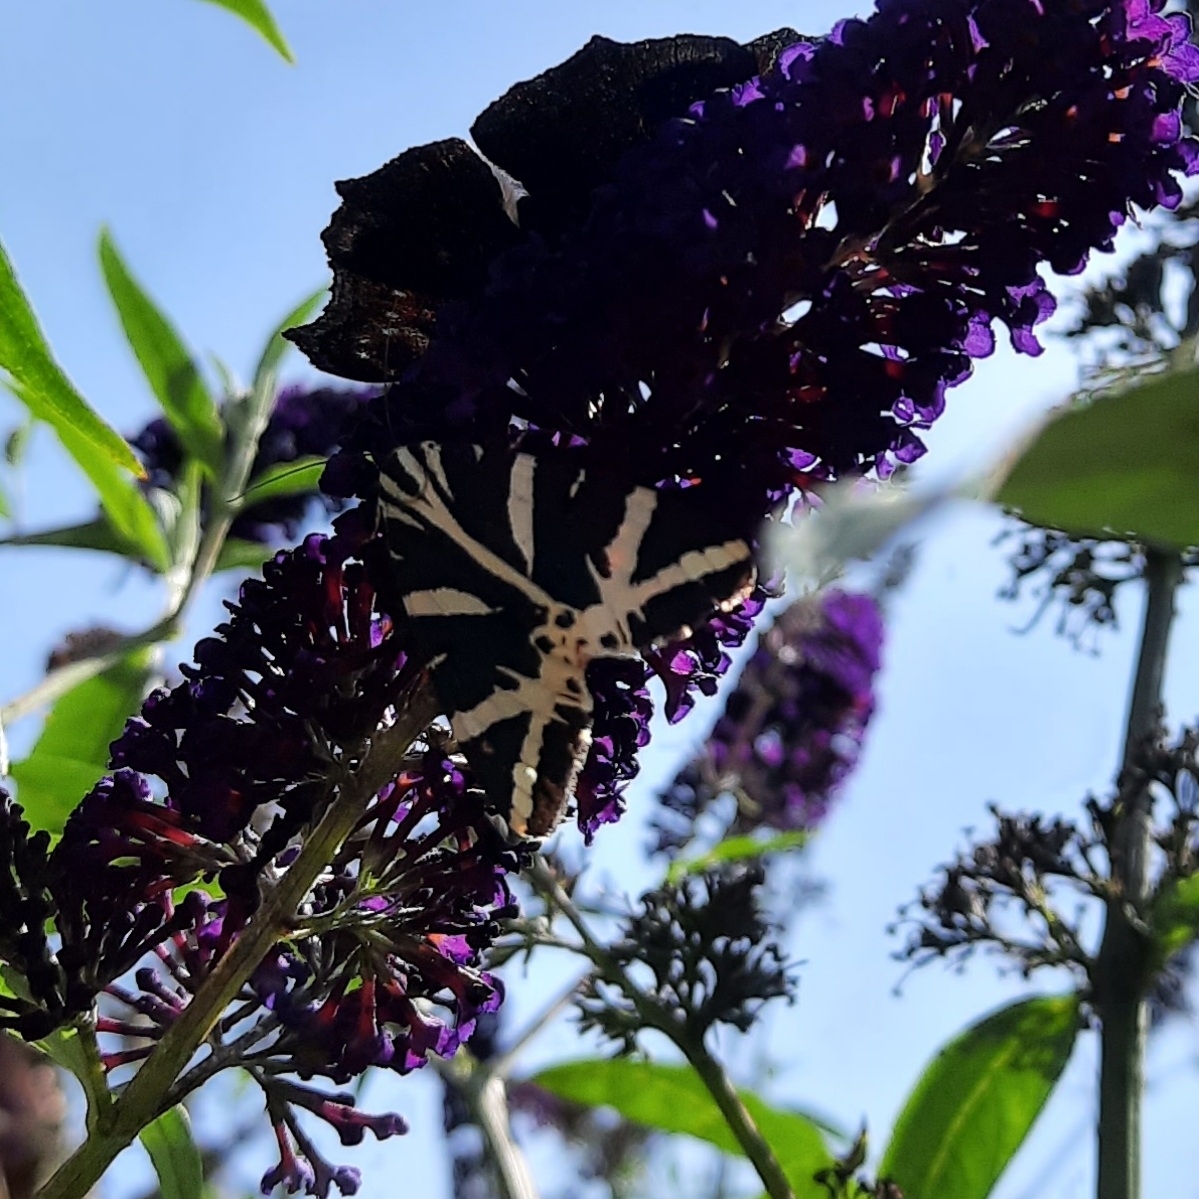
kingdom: Animalia
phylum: Arthropoda
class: Insecta
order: Lepidoptera
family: Erebidae
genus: Euplagia
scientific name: Euplagia quadripunctaria
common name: Jersey tiger
